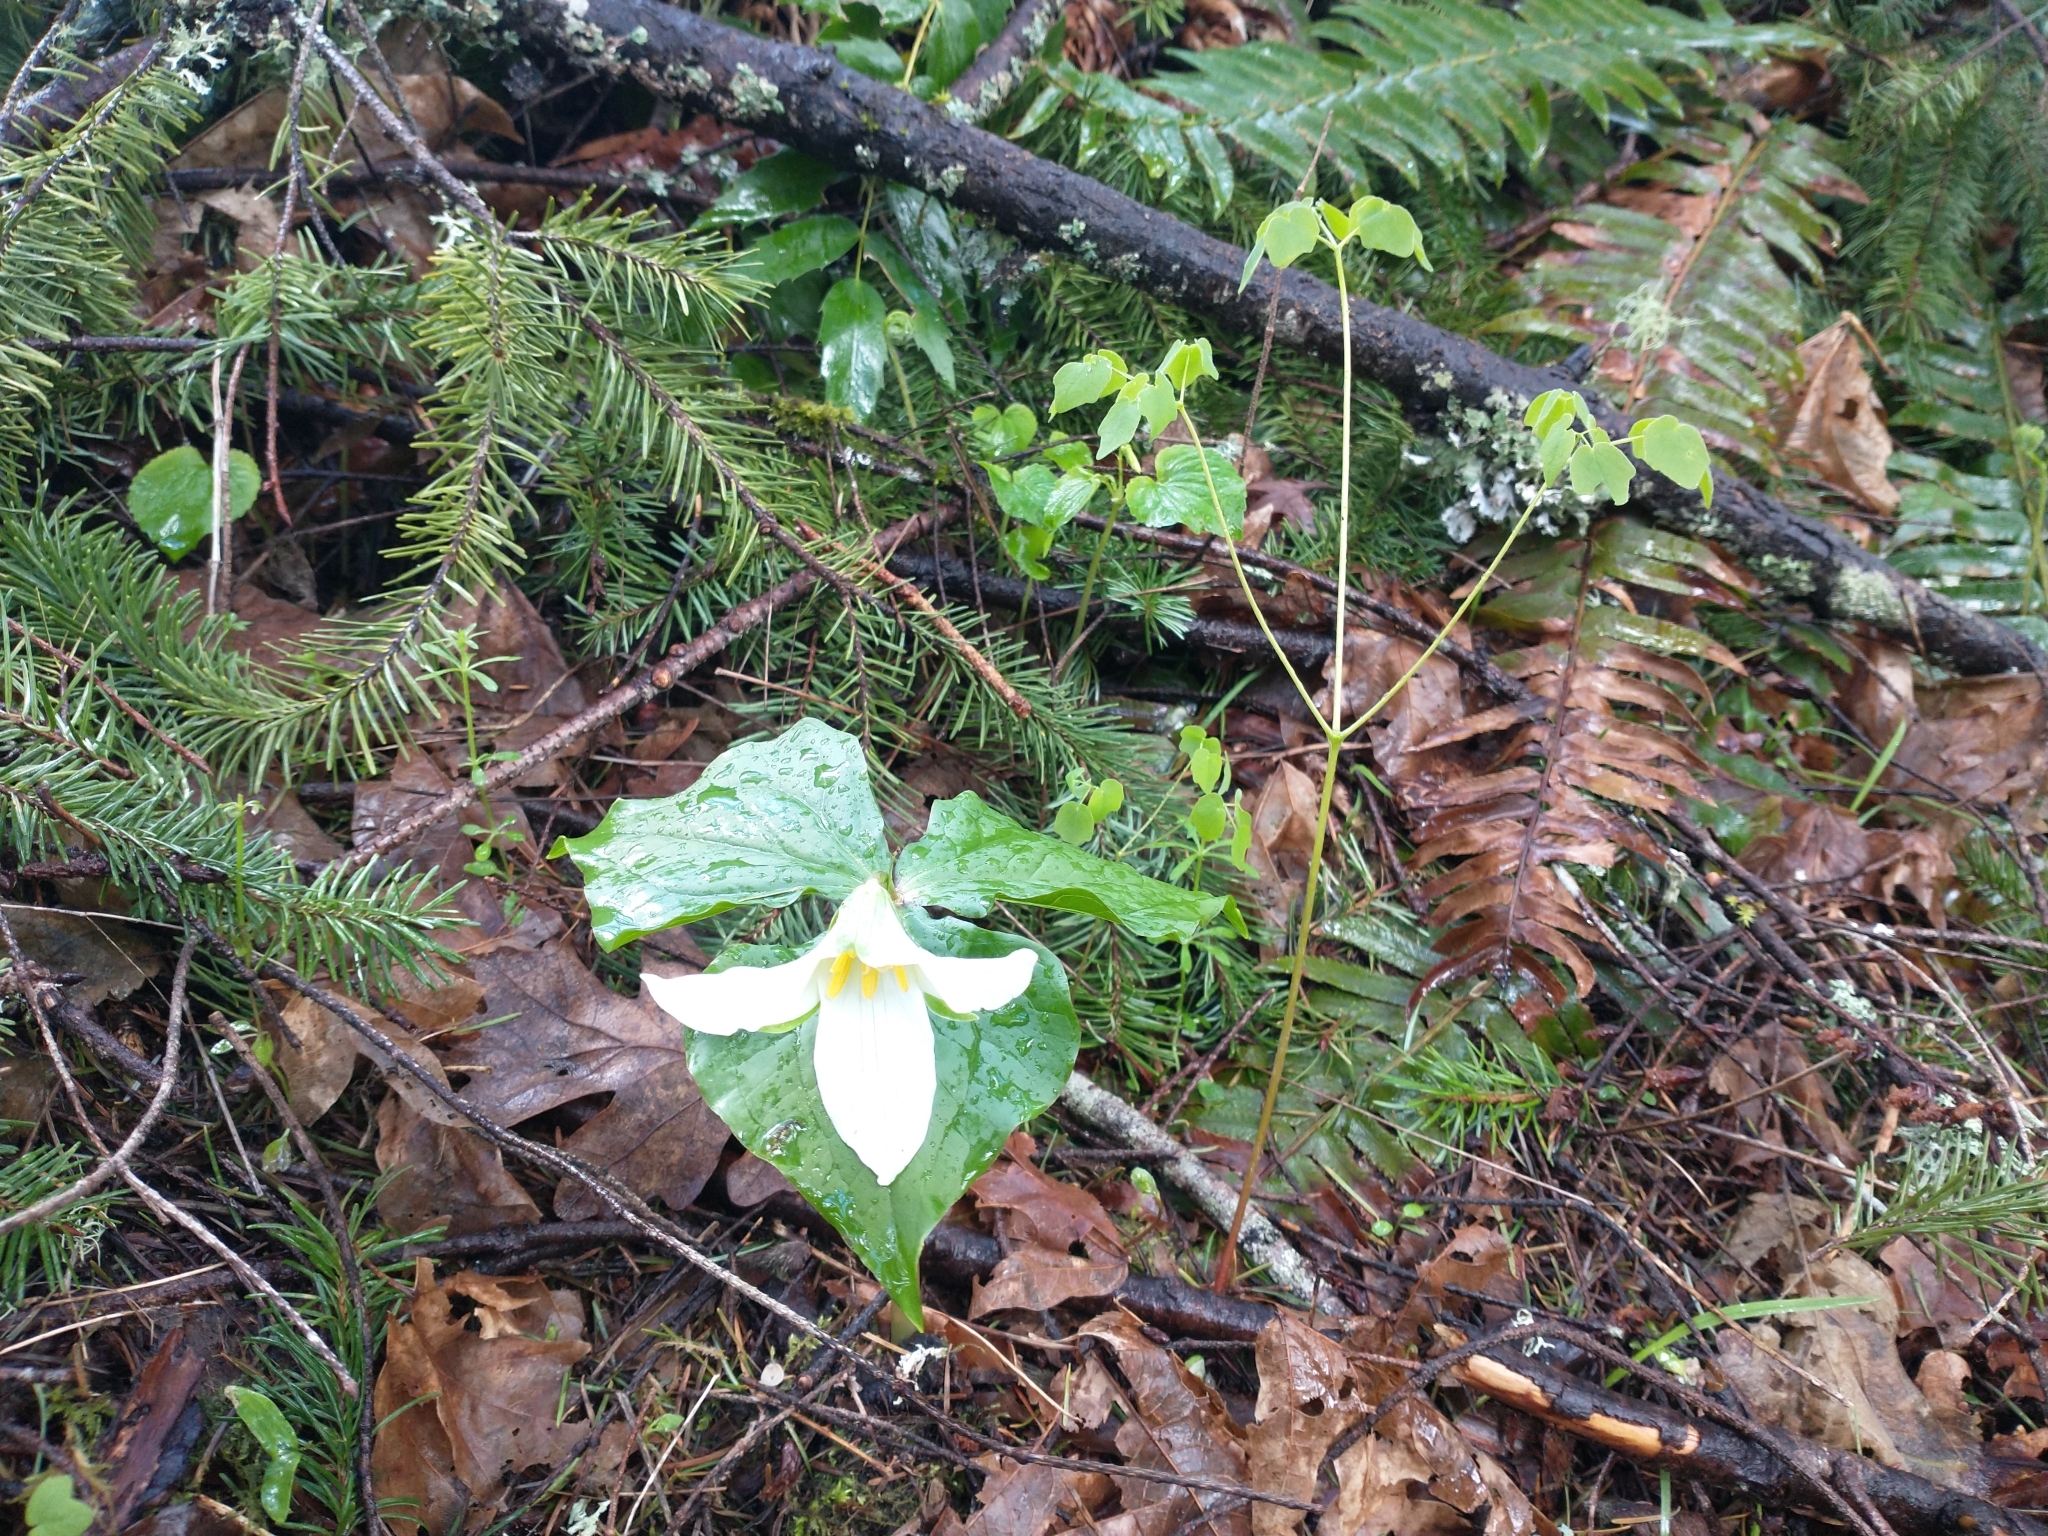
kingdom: Plantae
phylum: Tracheophyta
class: Liliopsida
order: Liliales
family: Melanthiaceae
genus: Trillium
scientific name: Trillium ovatum
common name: Pacific trillium
